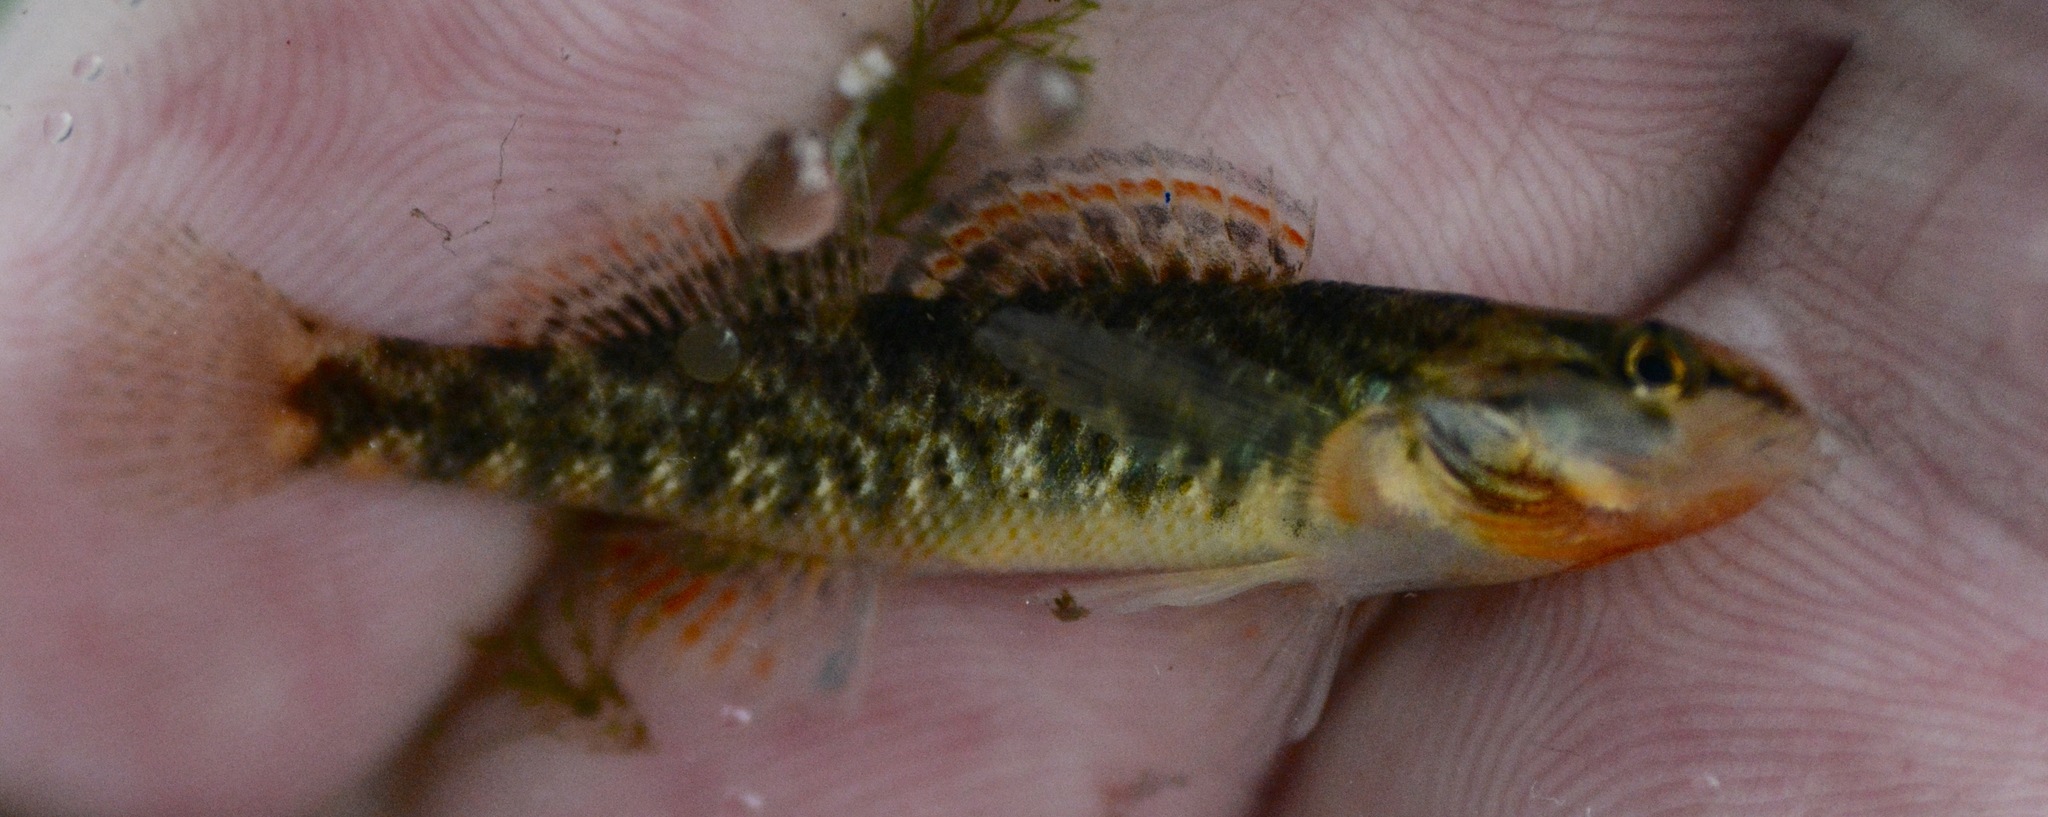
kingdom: Animalia
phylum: Chordata
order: Perciformes
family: Percidae
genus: Etheostoma
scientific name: Etheostoma caeruleum
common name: Rainbow darter
